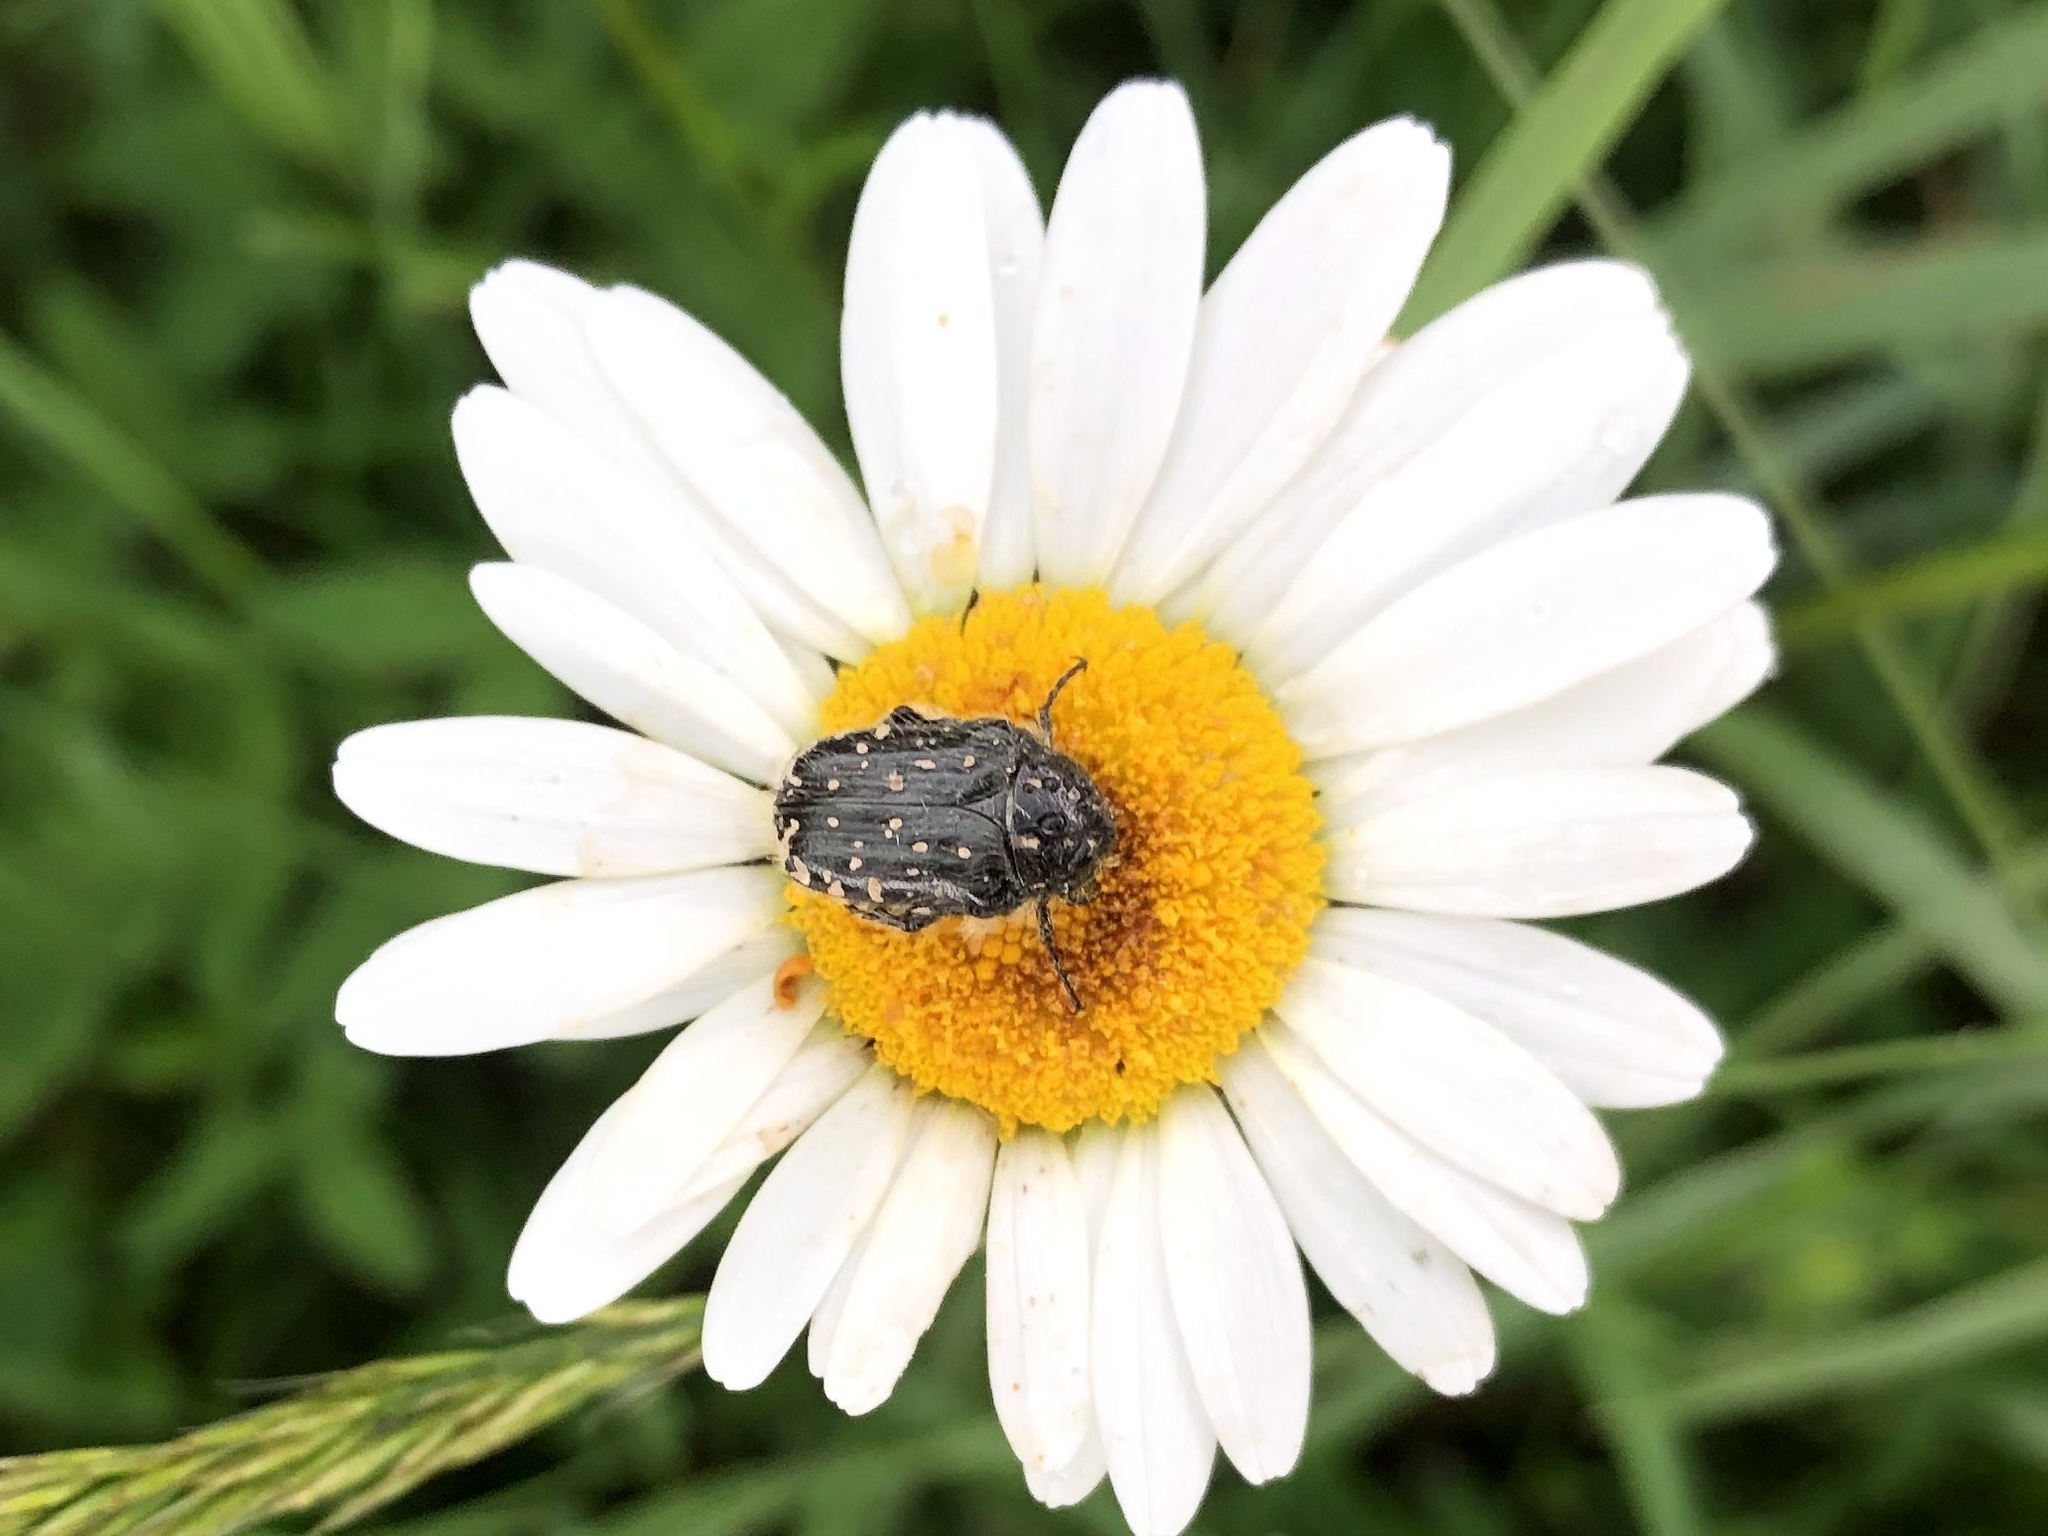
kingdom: Animalia
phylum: Arthropoda
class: Insecta
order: Coleoptera
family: Scarabaeidae
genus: Oxythyrea
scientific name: Oxythyrea funesta
